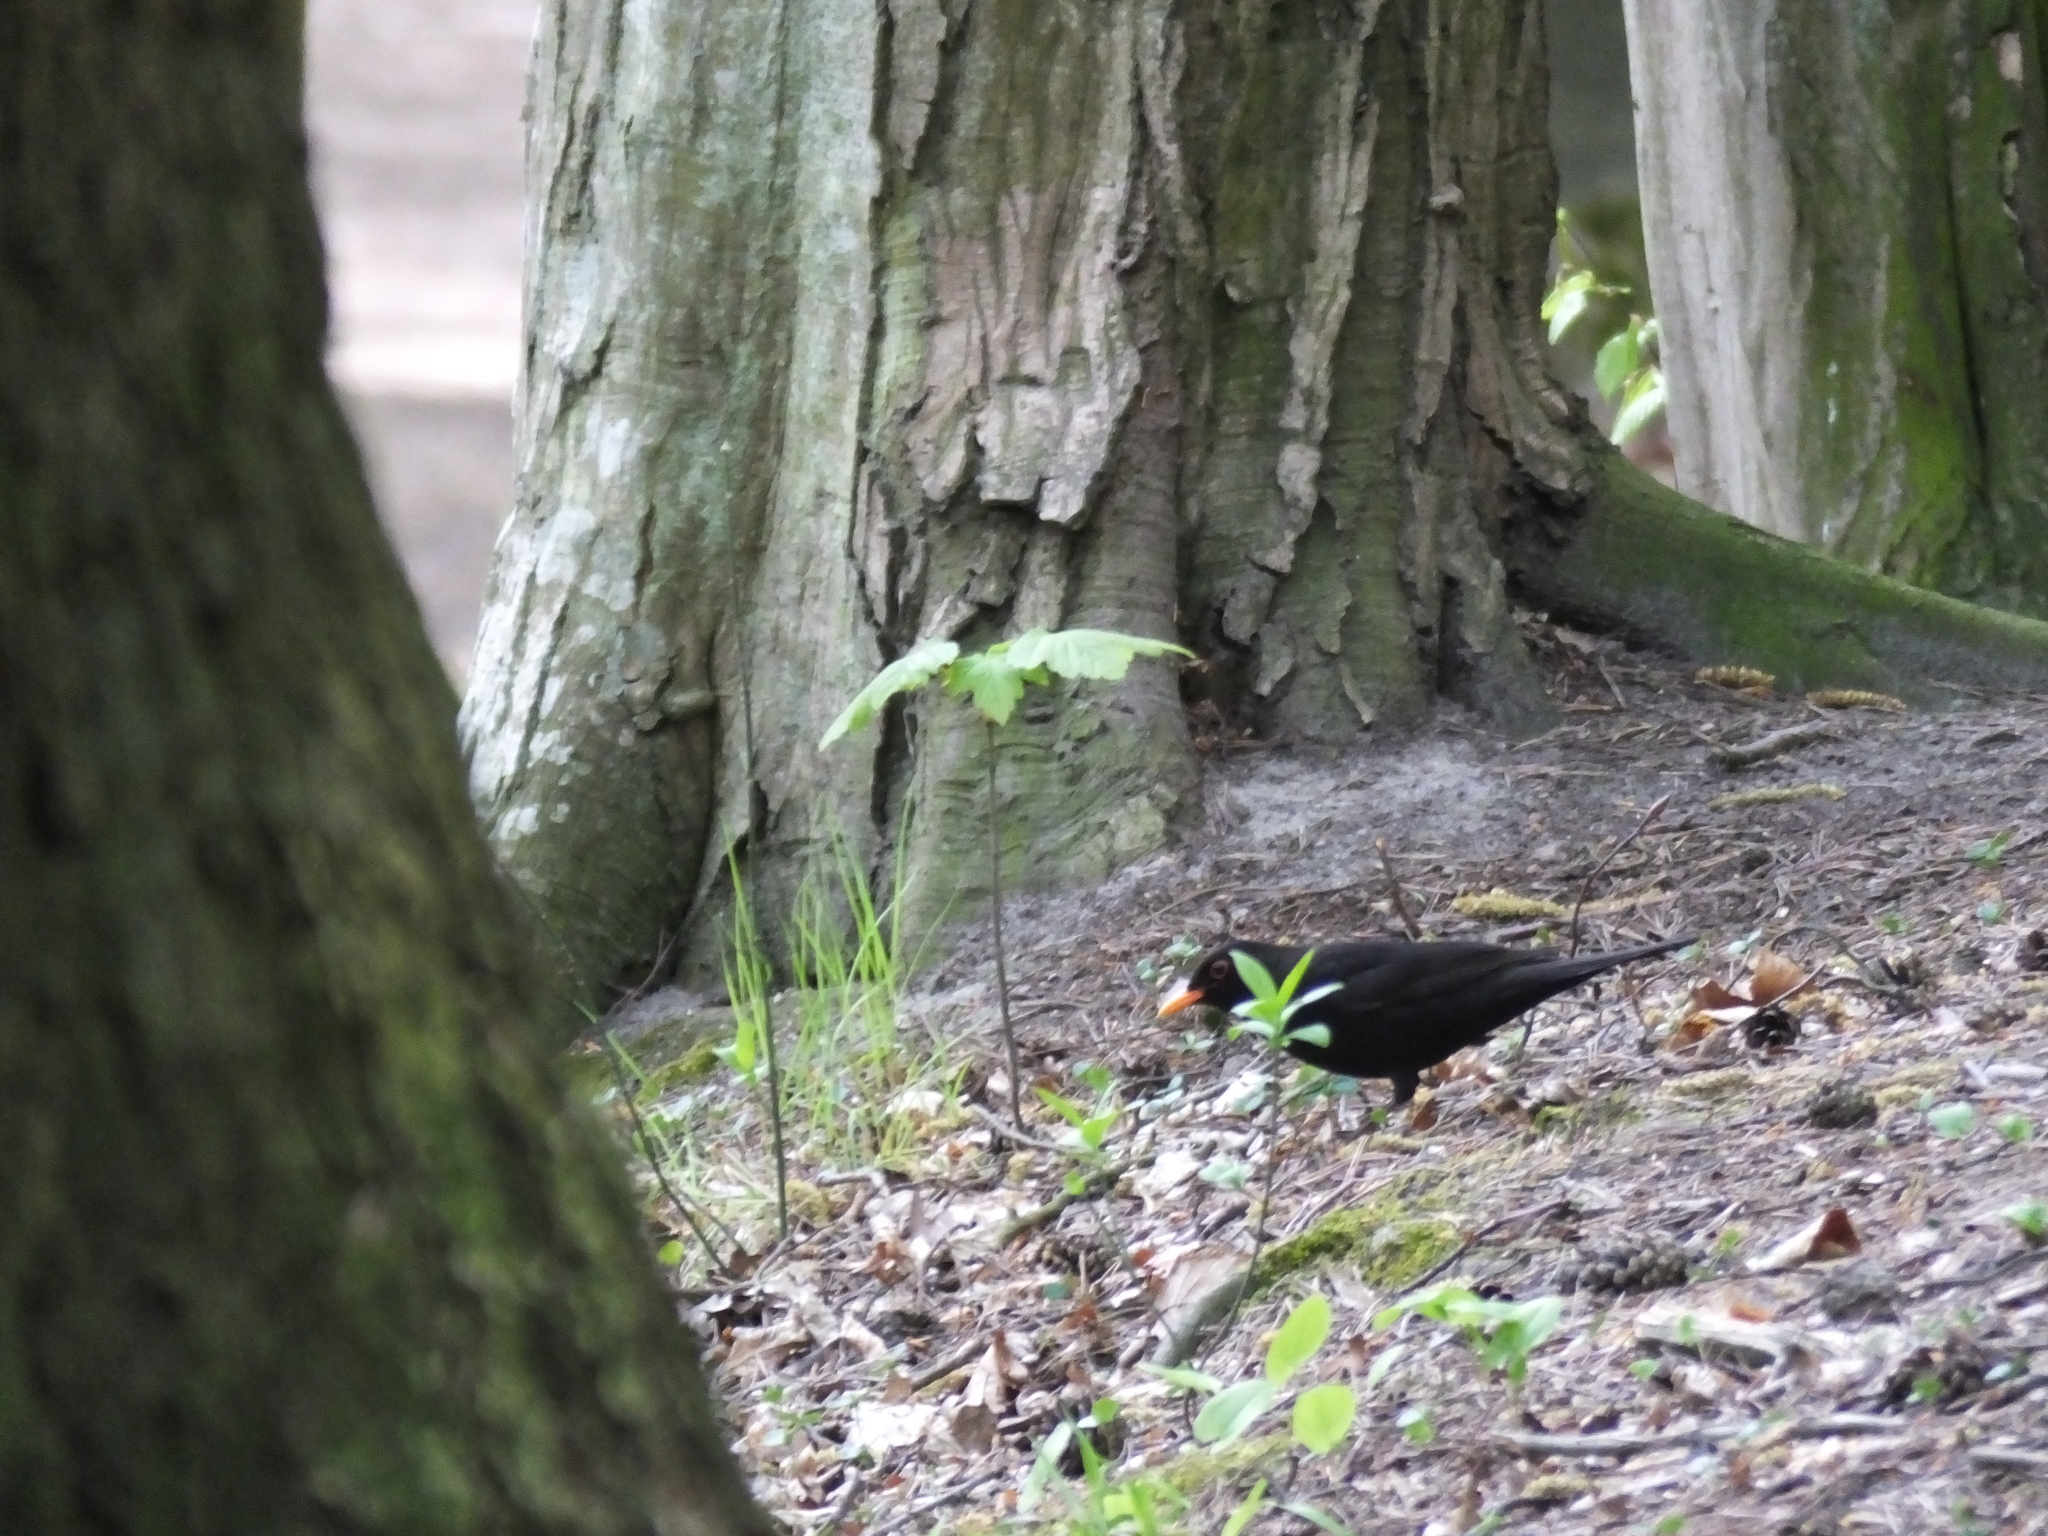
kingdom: Animalia
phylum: Chordata
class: Aves
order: Passeriformes
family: Turdidae
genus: Turdus
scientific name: Turdus merula
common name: Common blackbird
